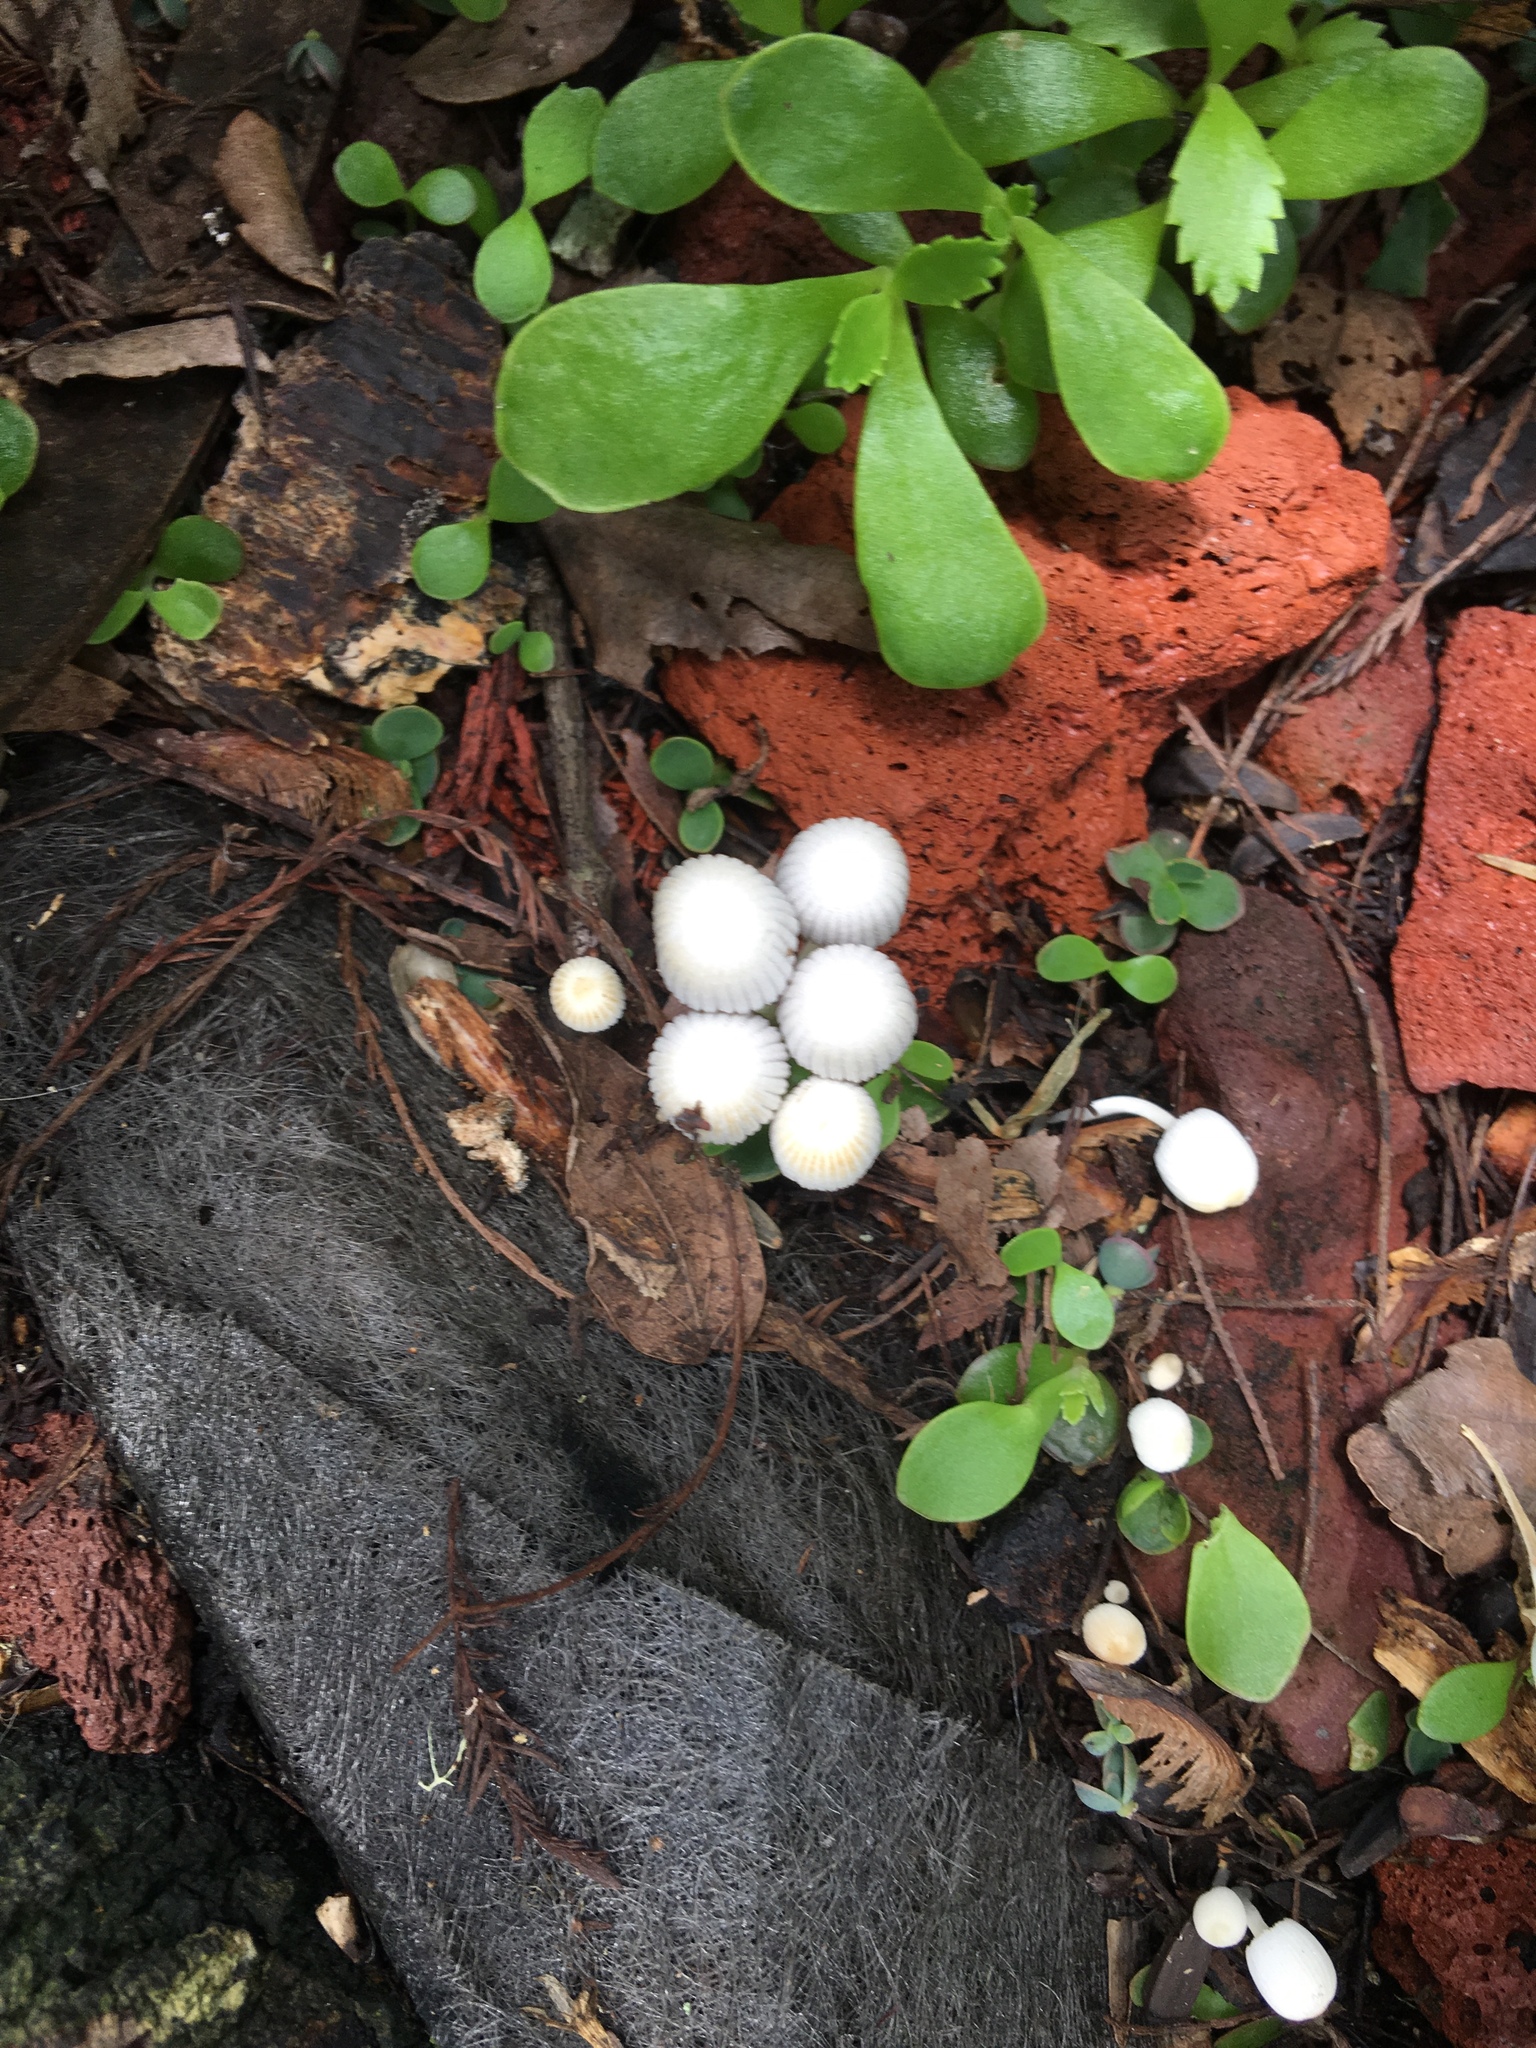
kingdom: Fungi
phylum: Basidiomycota
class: Agaricomycetes
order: Agaricales
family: Psathyrellaceae
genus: Coprinellus
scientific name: Coprinellus disseminatus
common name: Fairies' bonnets
